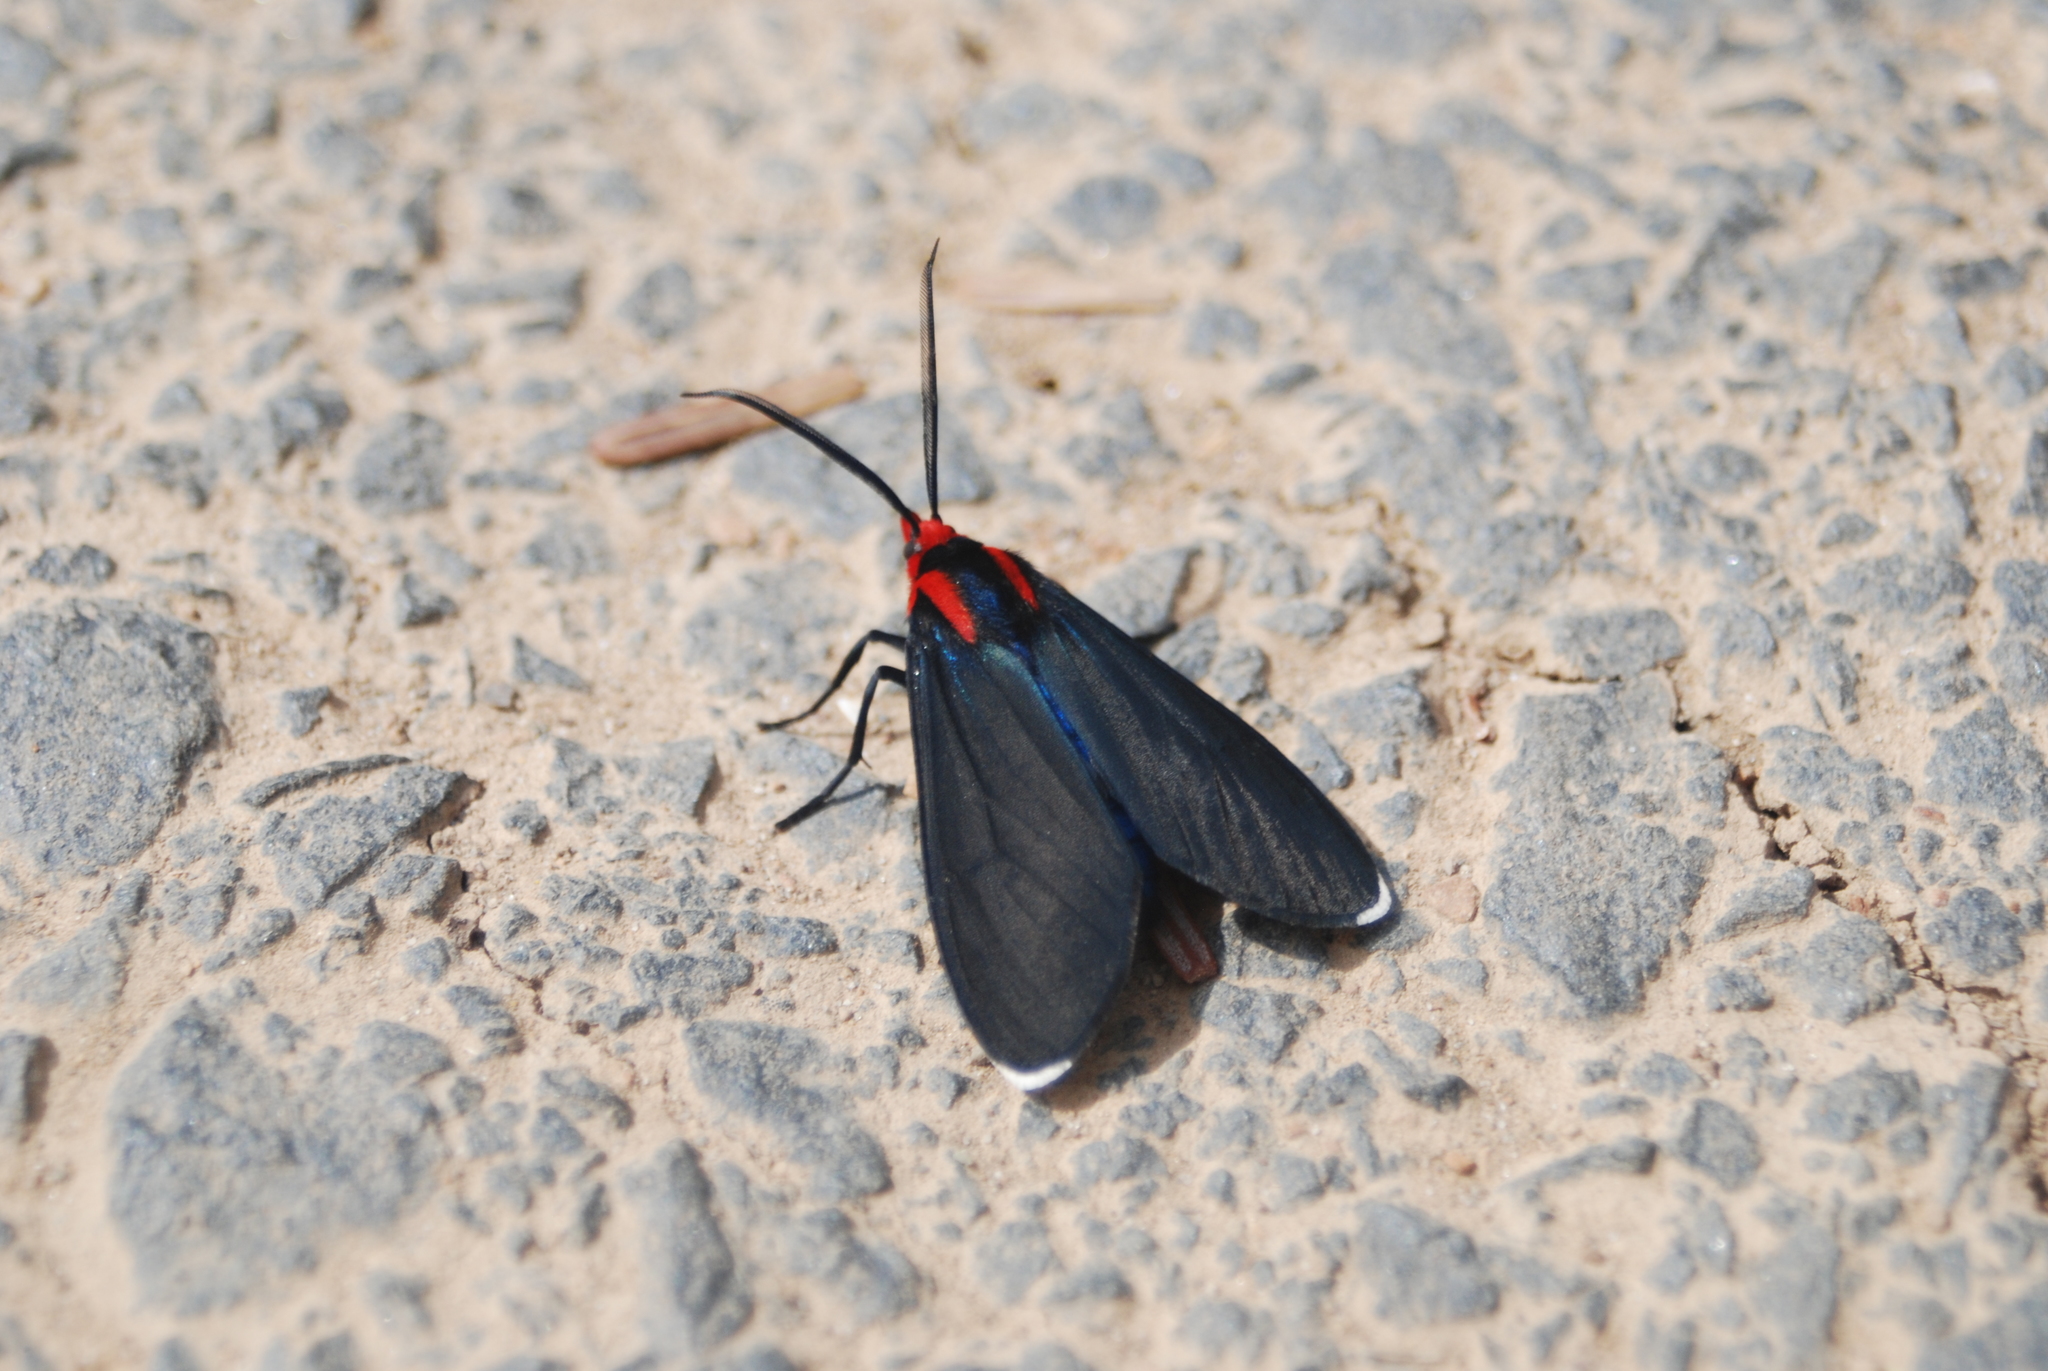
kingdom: Animalia
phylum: Arthropoda
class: Insecta
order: Lepidoptera
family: Erebidae
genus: Ctenucha
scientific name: Ctenucha rubroscapus
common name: Red-shouldered ctenucha
